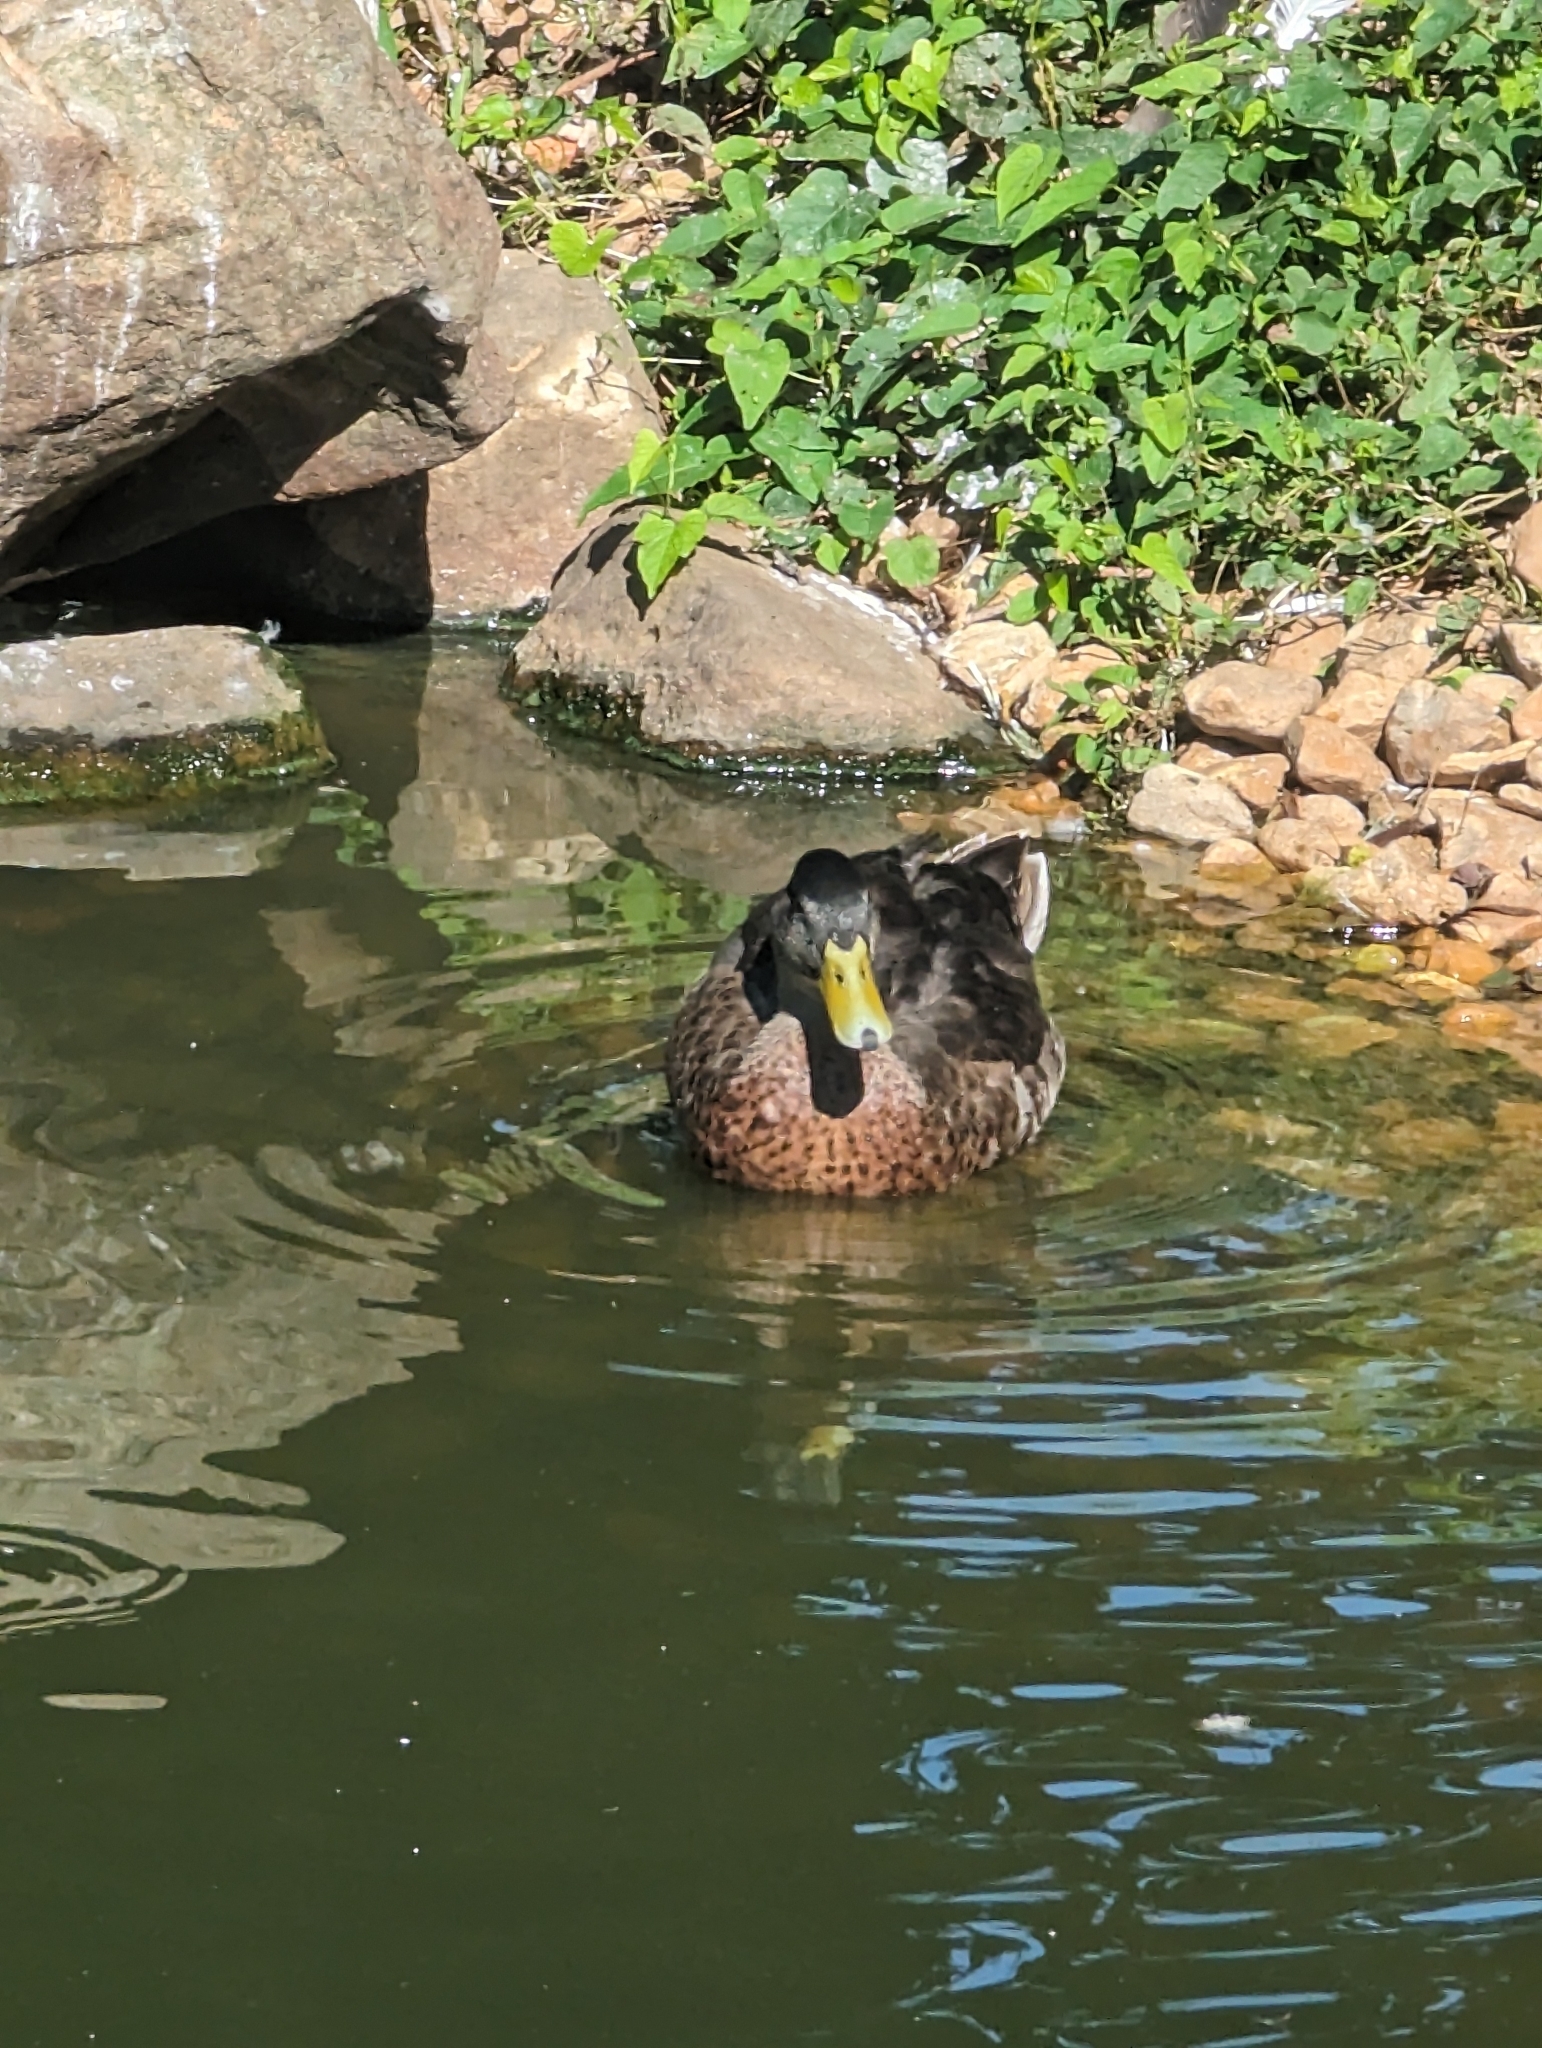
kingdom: Animalia
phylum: Chordata
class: Aves
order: Anseriformes
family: Anatidae
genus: Anas
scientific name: Anas platyrhynchos
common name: Mallard
